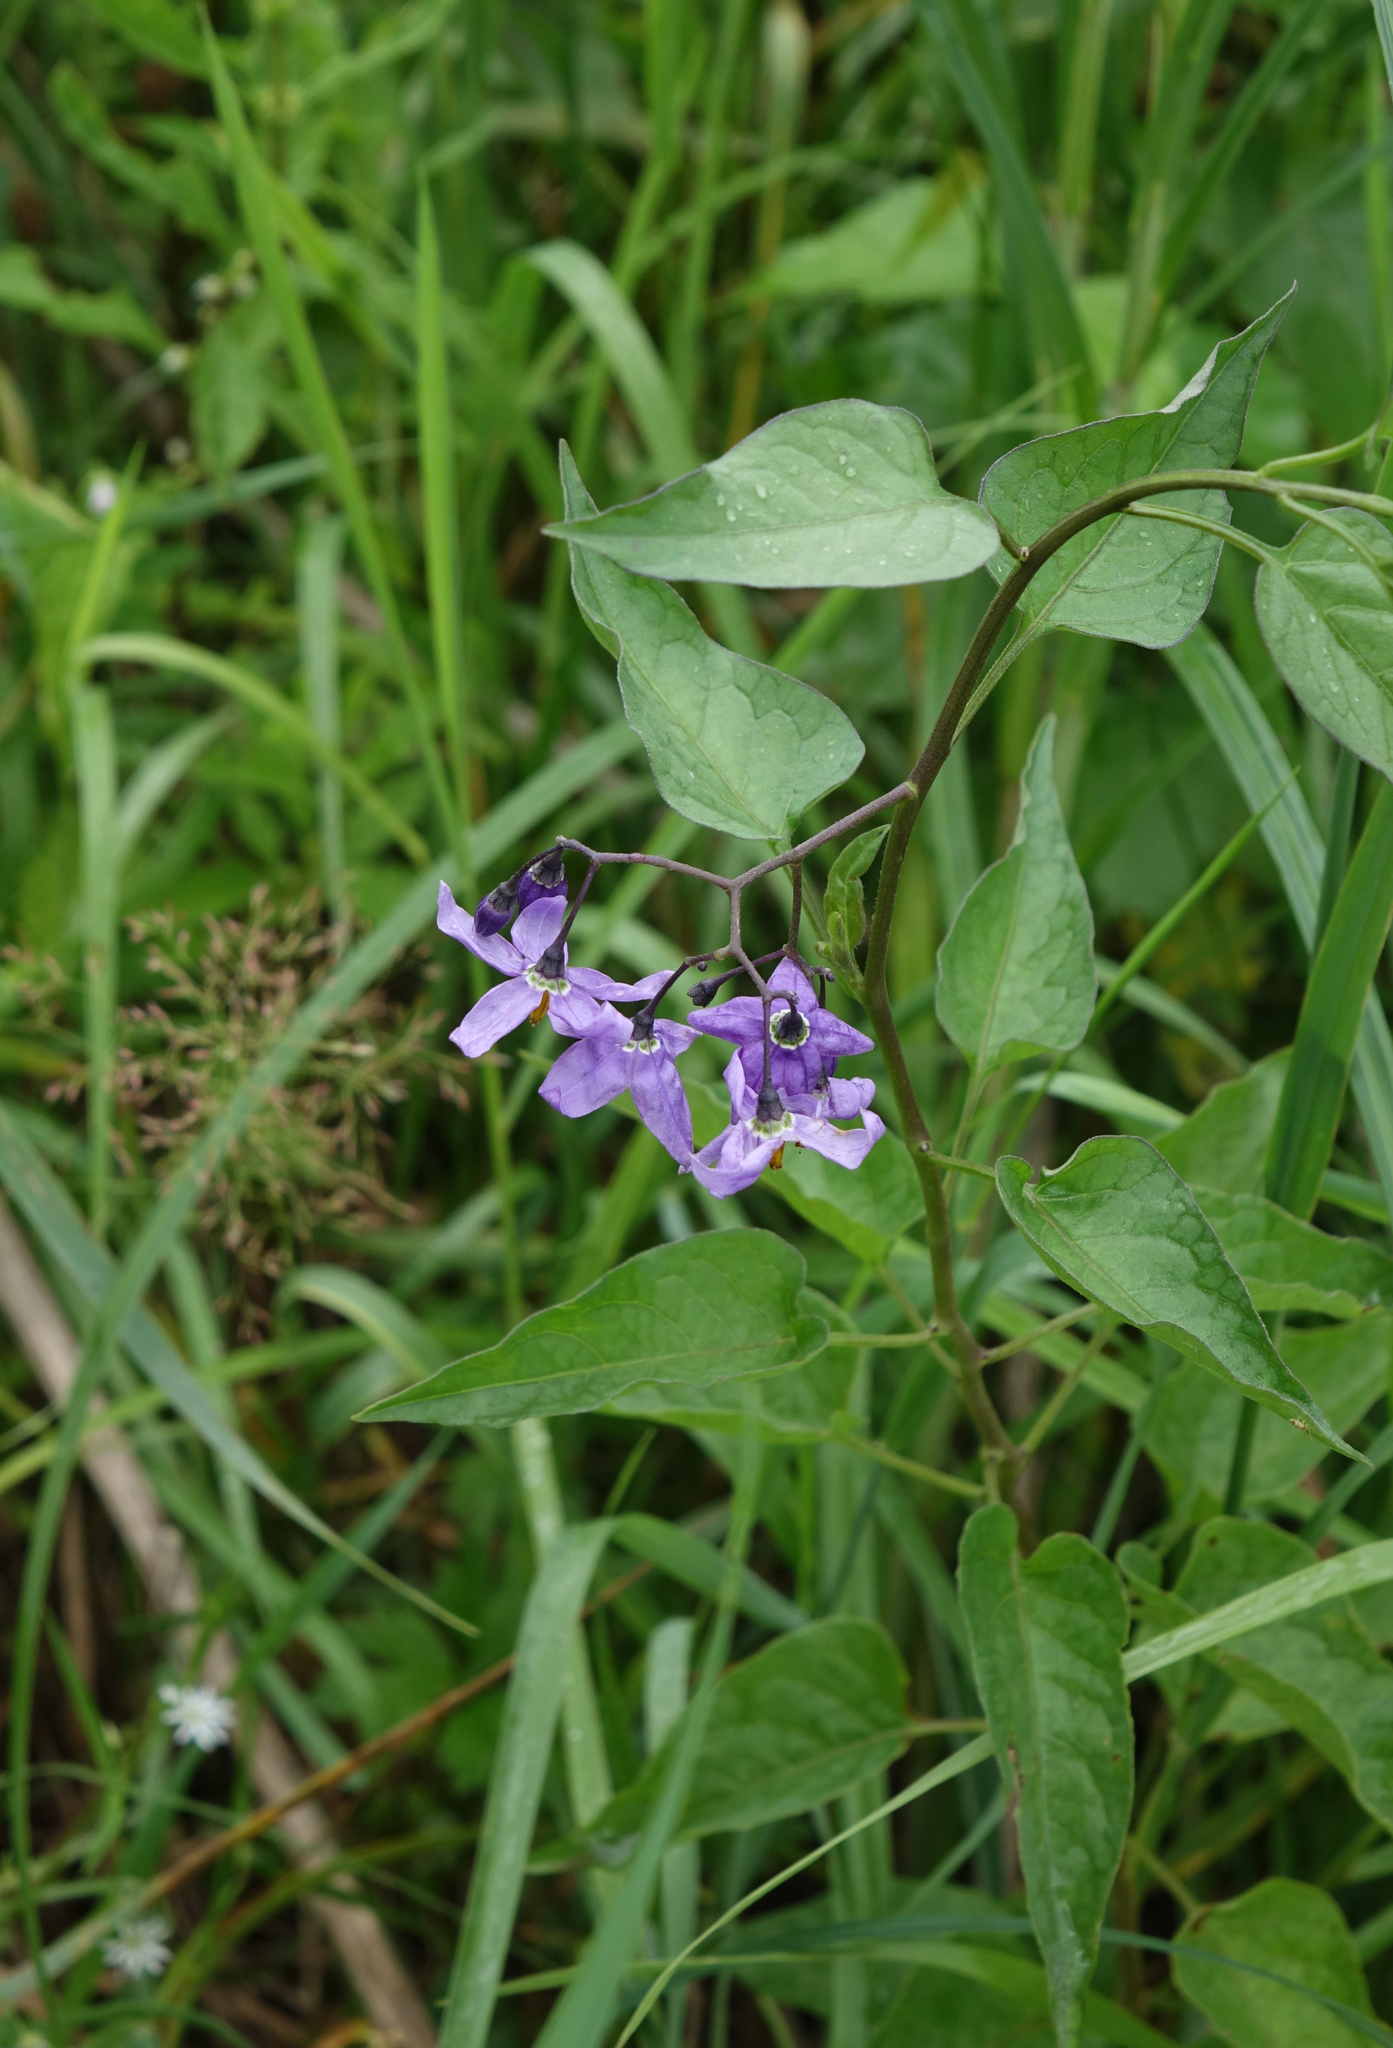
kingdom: Plantae
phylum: Tracheophyta
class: Magnoliopsida
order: Solanales
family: Solanaceae
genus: Solanum
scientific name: Solanum dulcamara
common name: Climbing nightshade
